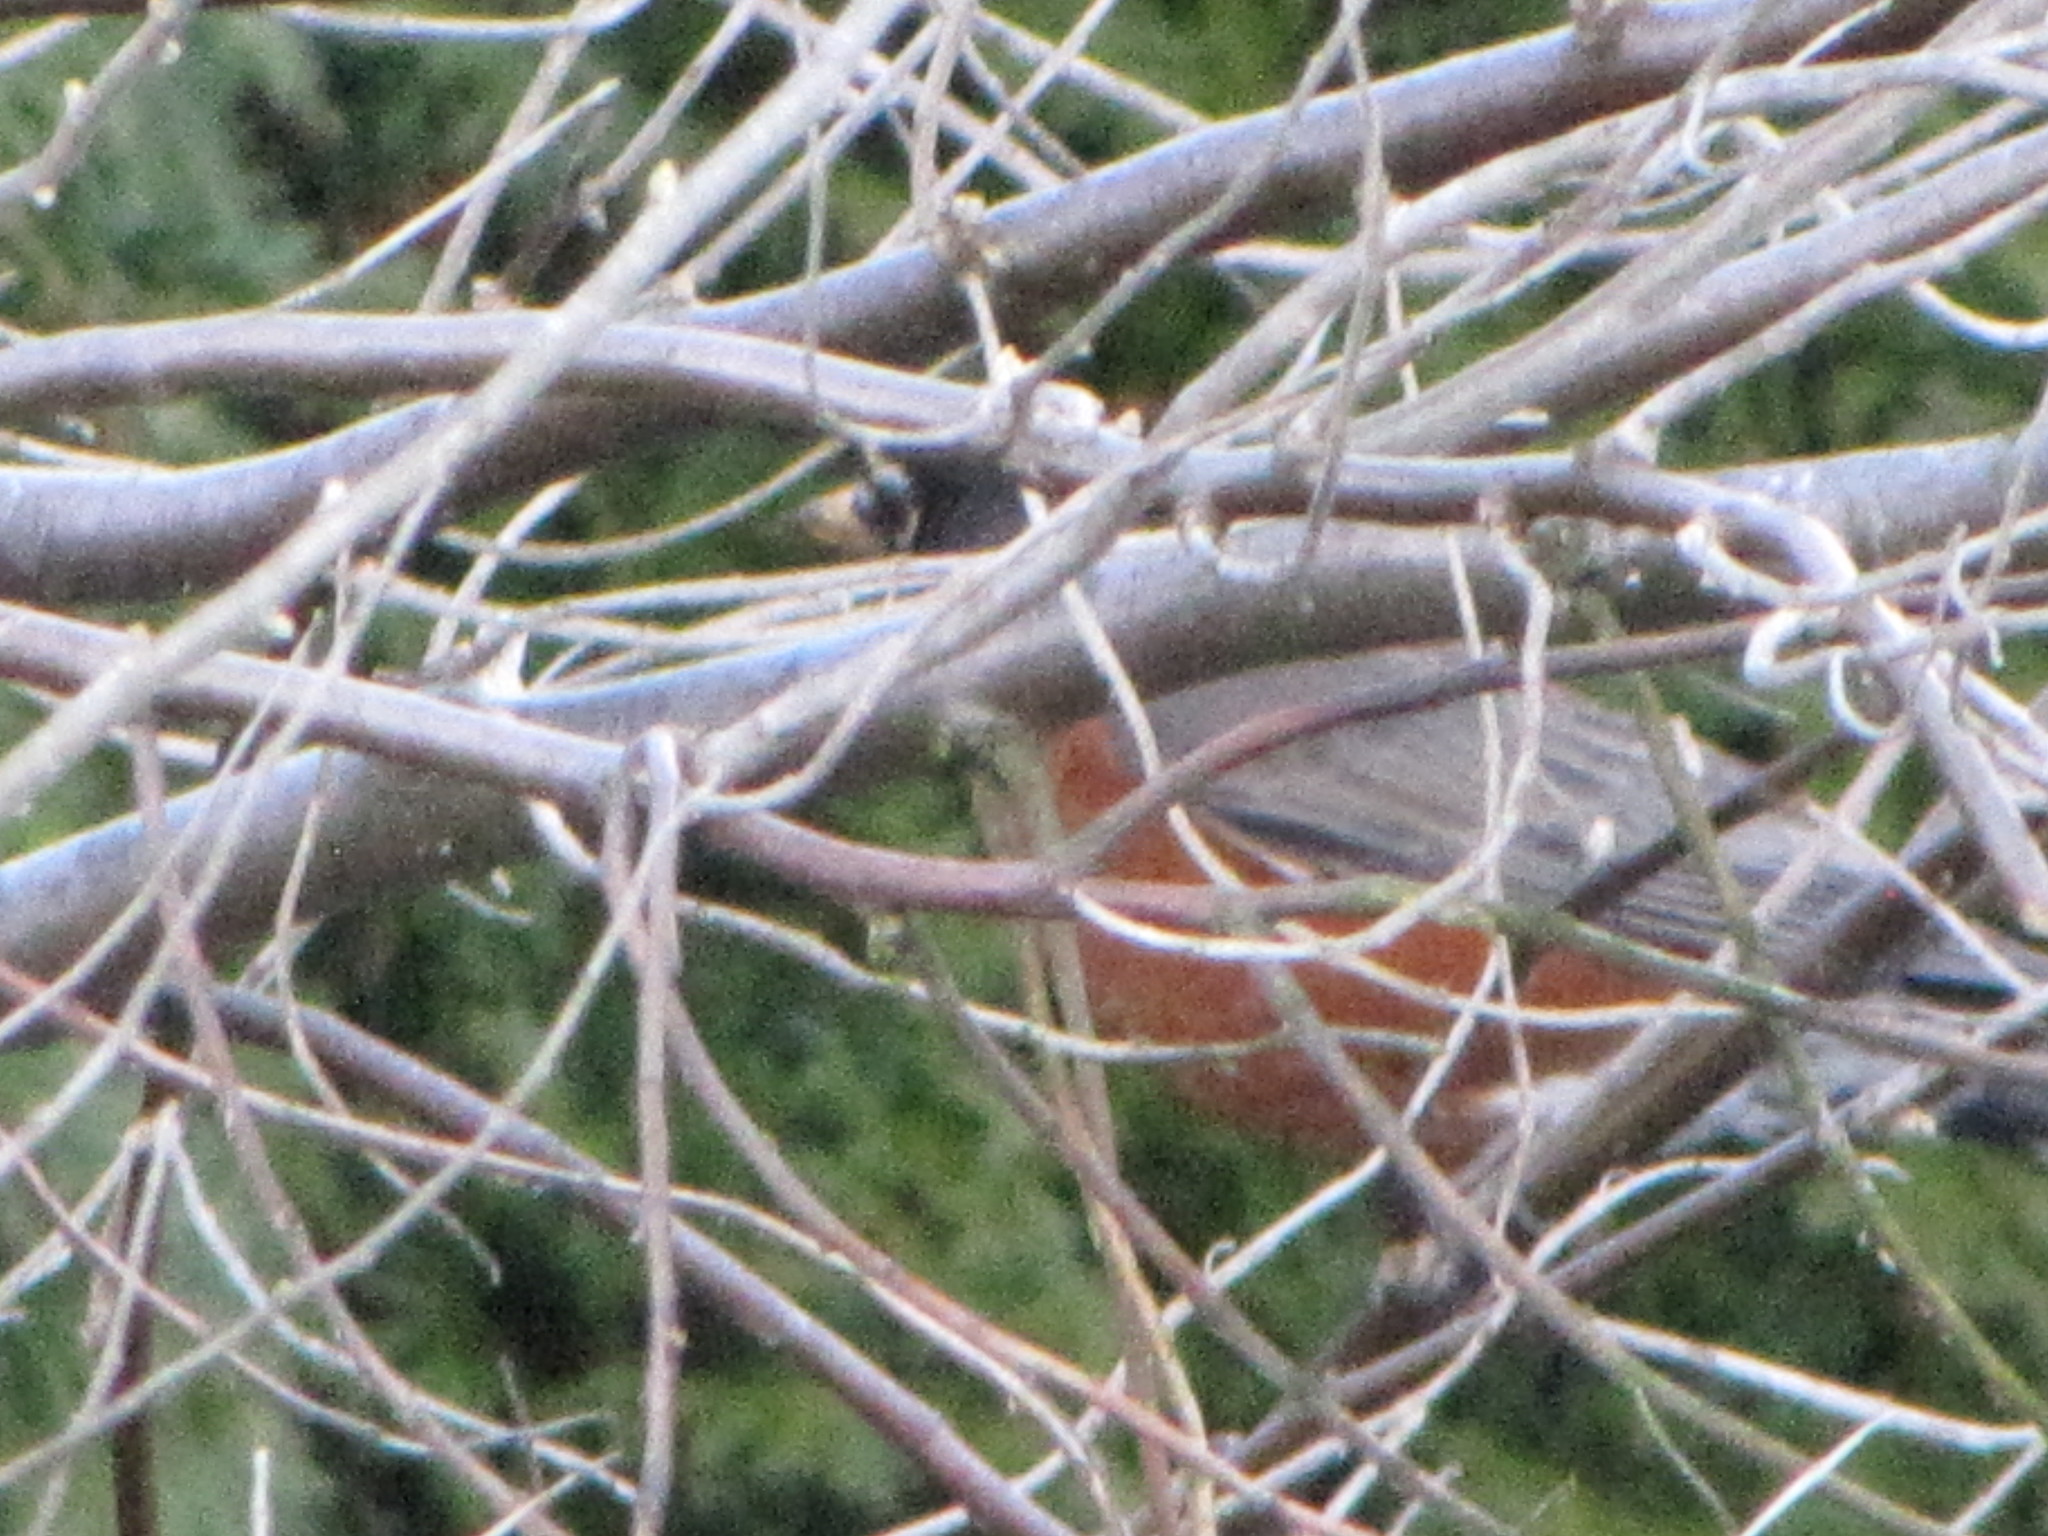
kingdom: Animalia
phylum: Chordata
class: Aves
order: Passeriformes
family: Turdidae
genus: Turdus
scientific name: Turdus migratorius
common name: American robin
